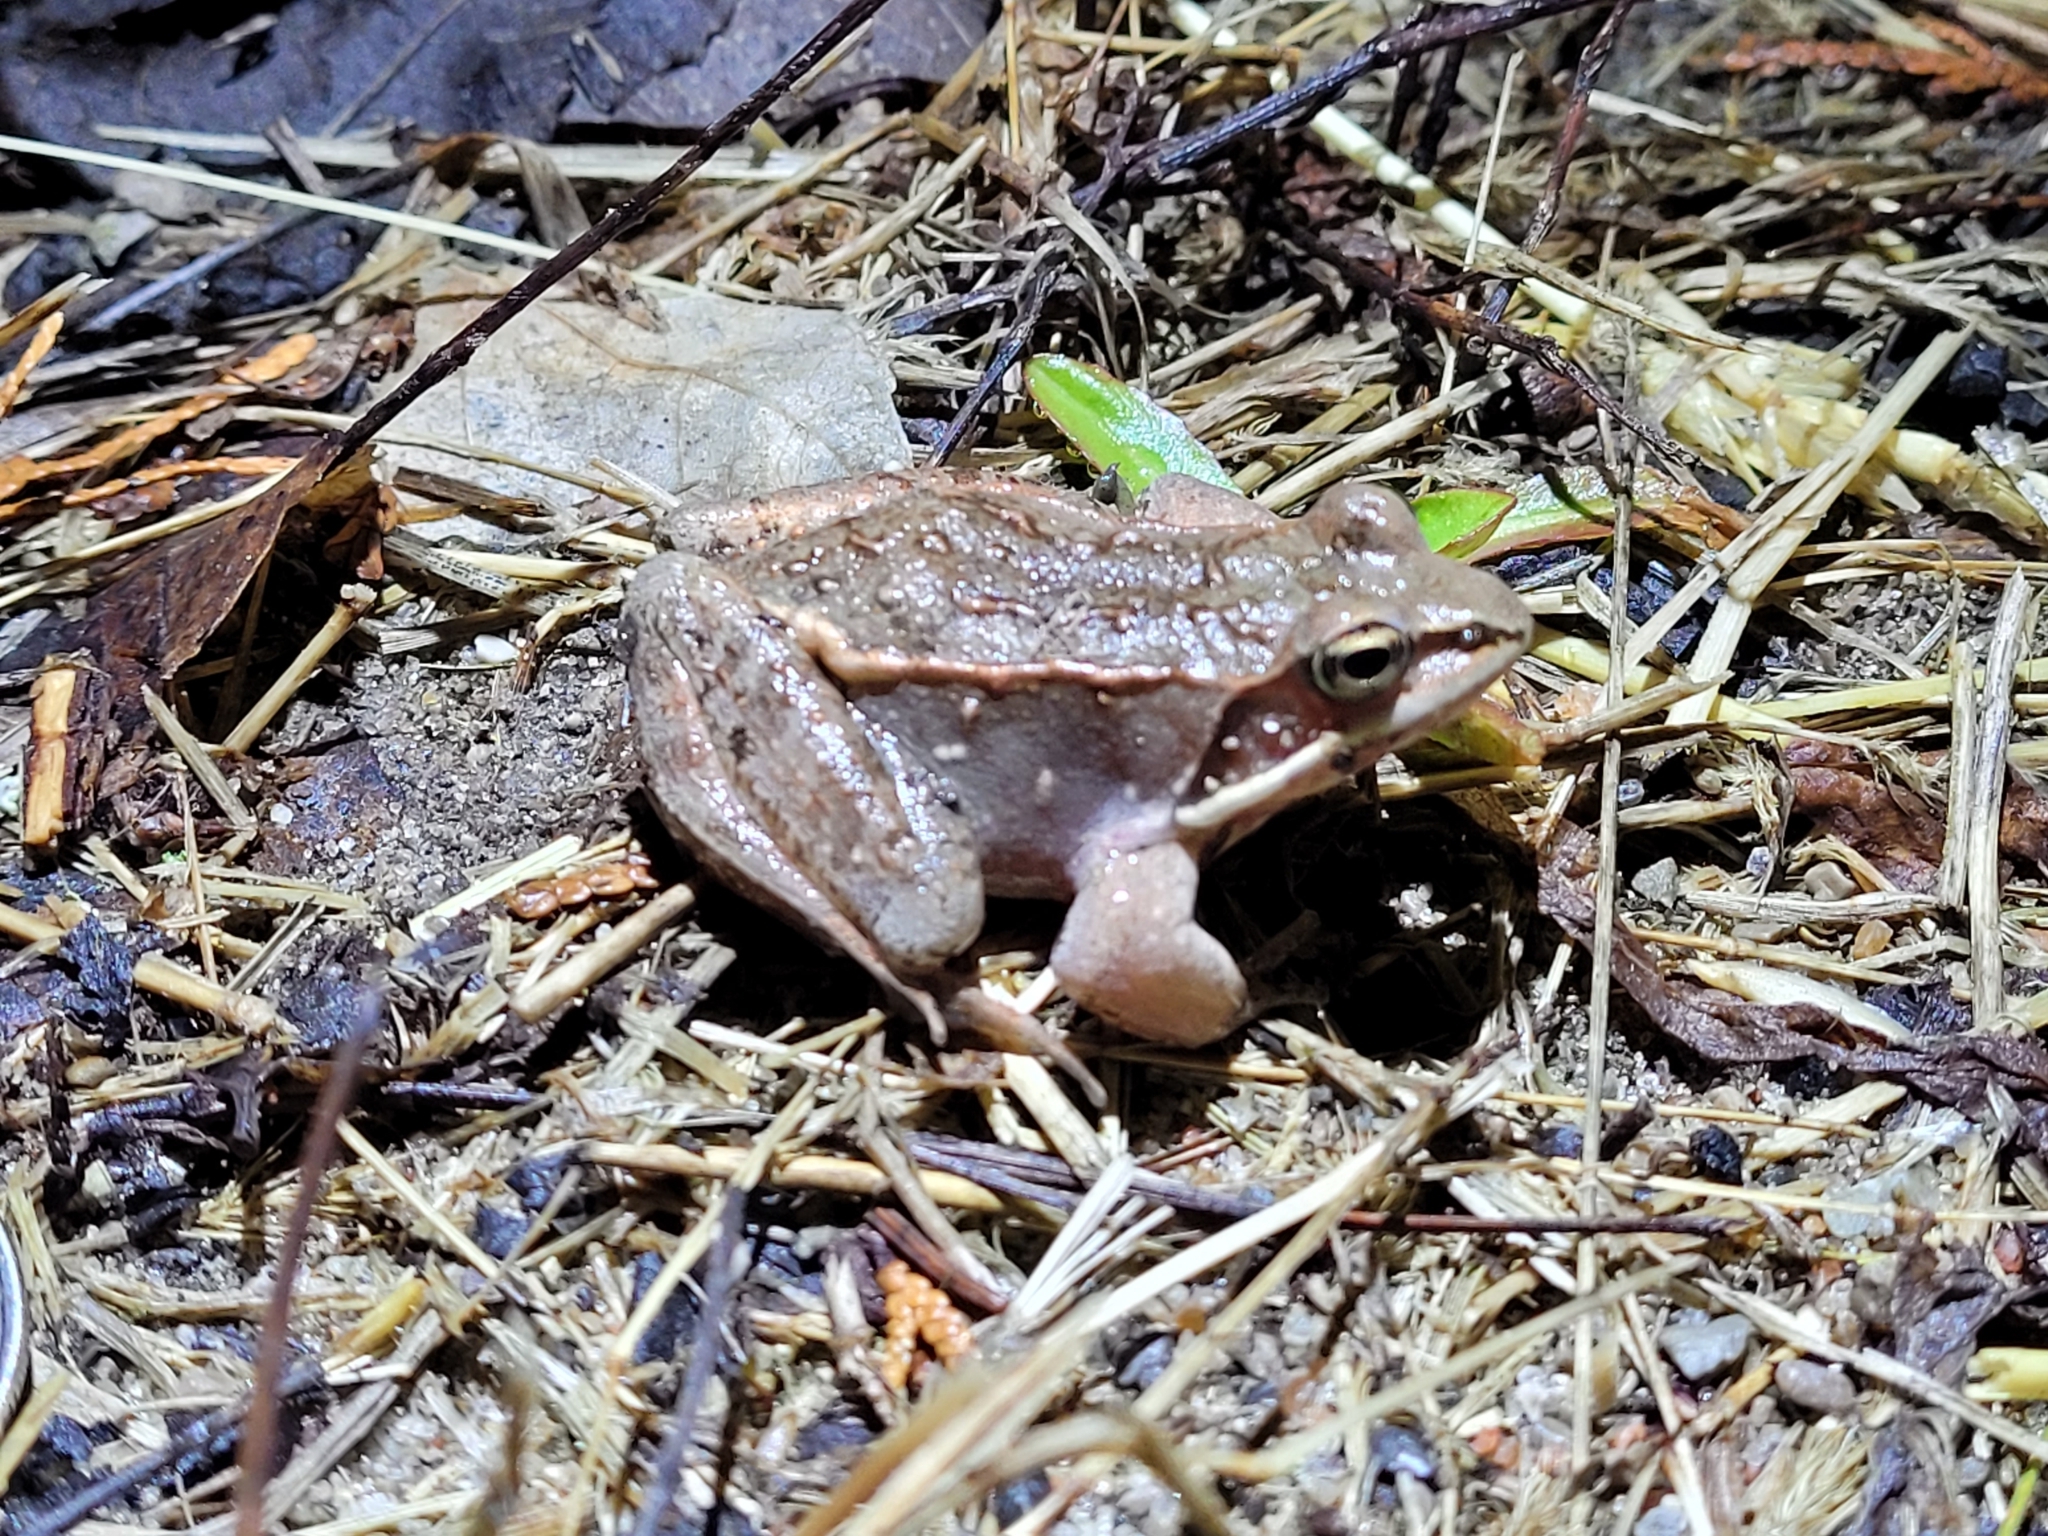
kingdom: Animalia
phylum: Chordata
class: Amphibia
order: Anura
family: Ranidae
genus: Lithobates
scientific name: Lithobates sylvaticus
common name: Wood frog
